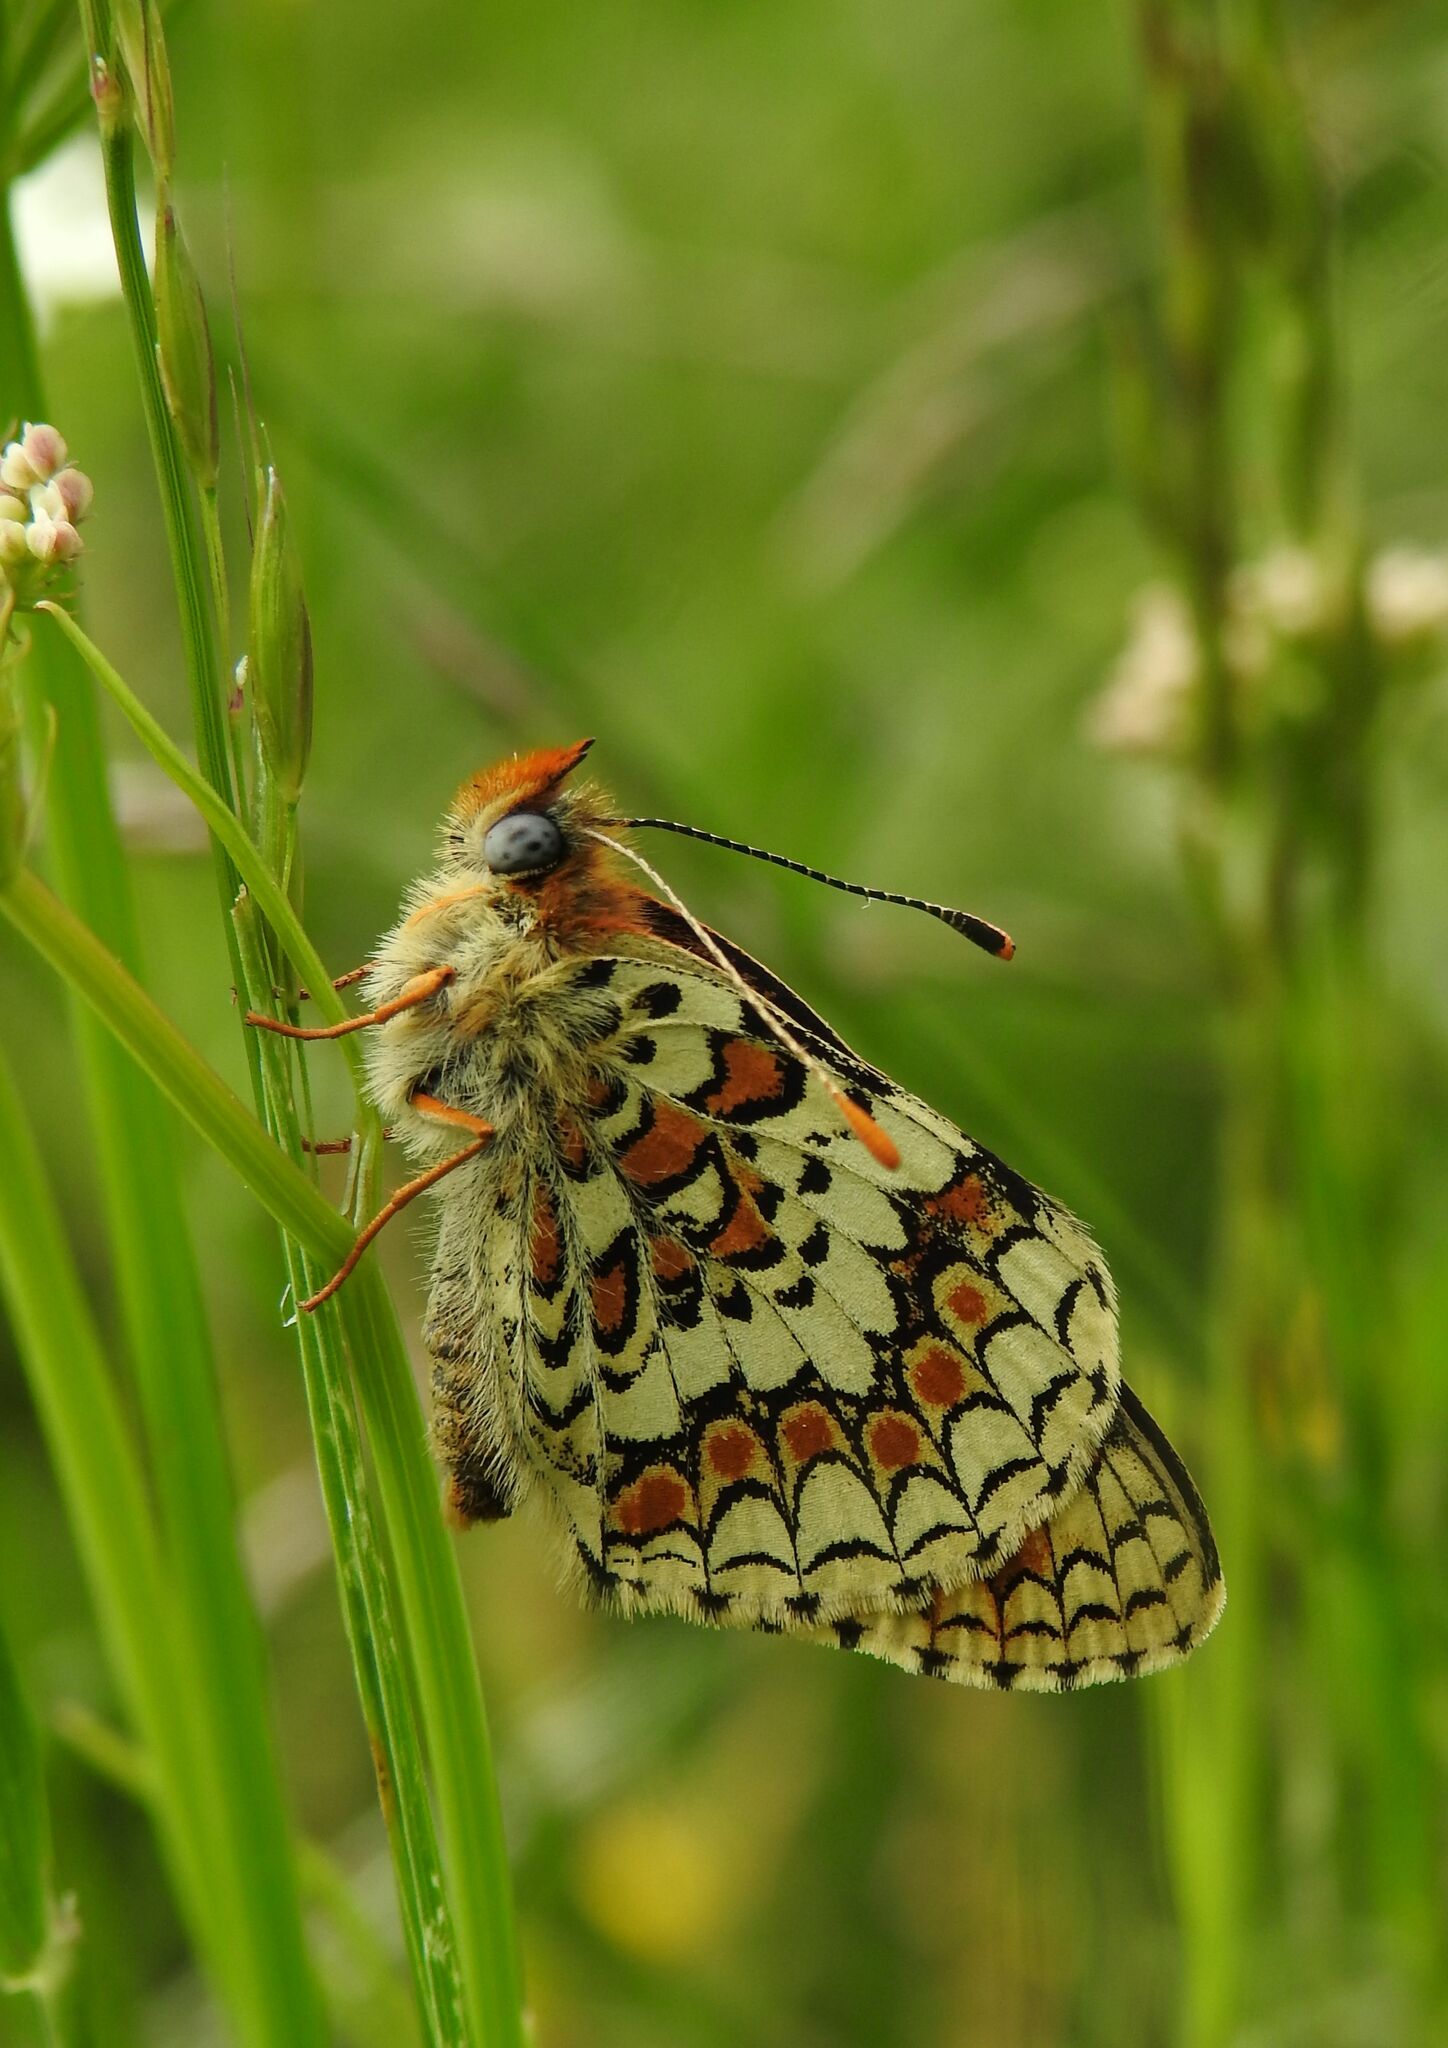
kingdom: Animalia
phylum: Arthropoda
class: Insecta
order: Lepidoptera
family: Nymphalidae
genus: Melitaea
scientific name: Melitaea phoebe
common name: Knapweed fritillary
